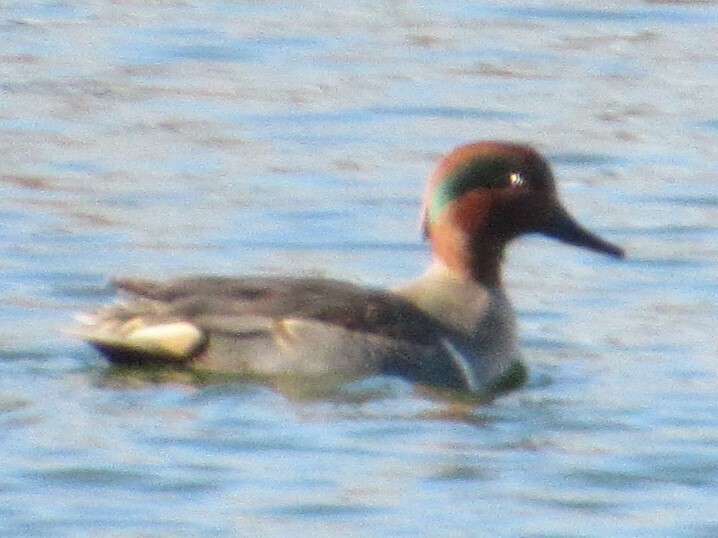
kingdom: Animalia
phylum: Chordata
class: Aves
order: Anseriformes
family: Anatidae
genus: Anas
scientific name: Anas crecca
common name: Eurasian teal
